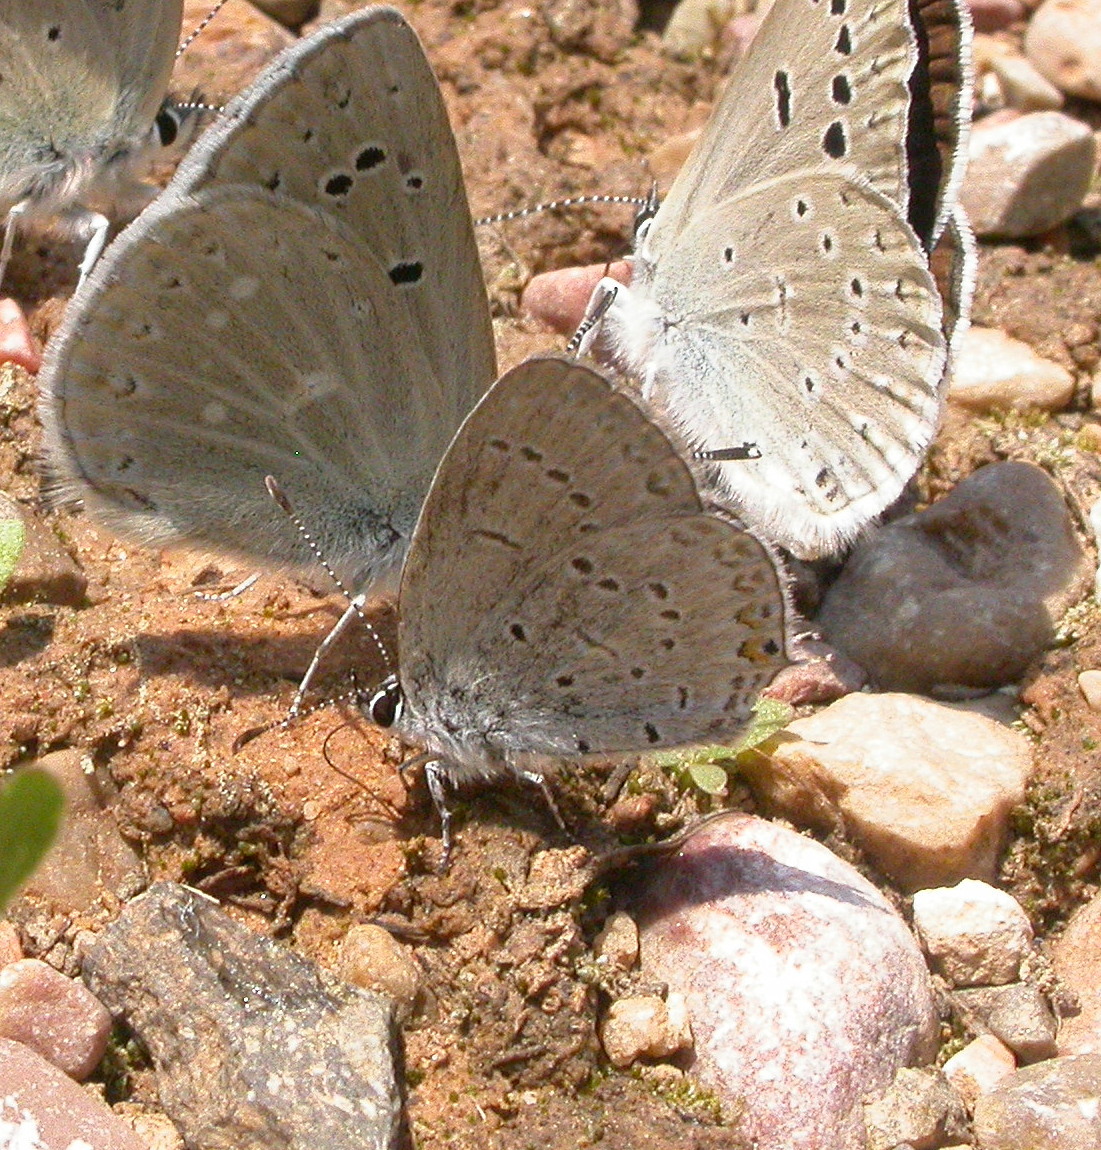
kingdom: Animalia
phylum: Arthropoda
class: Insecta
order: Lepidoptera
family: Lycaenidae
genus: Elkalyce
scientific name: Elkalyce amyntula
